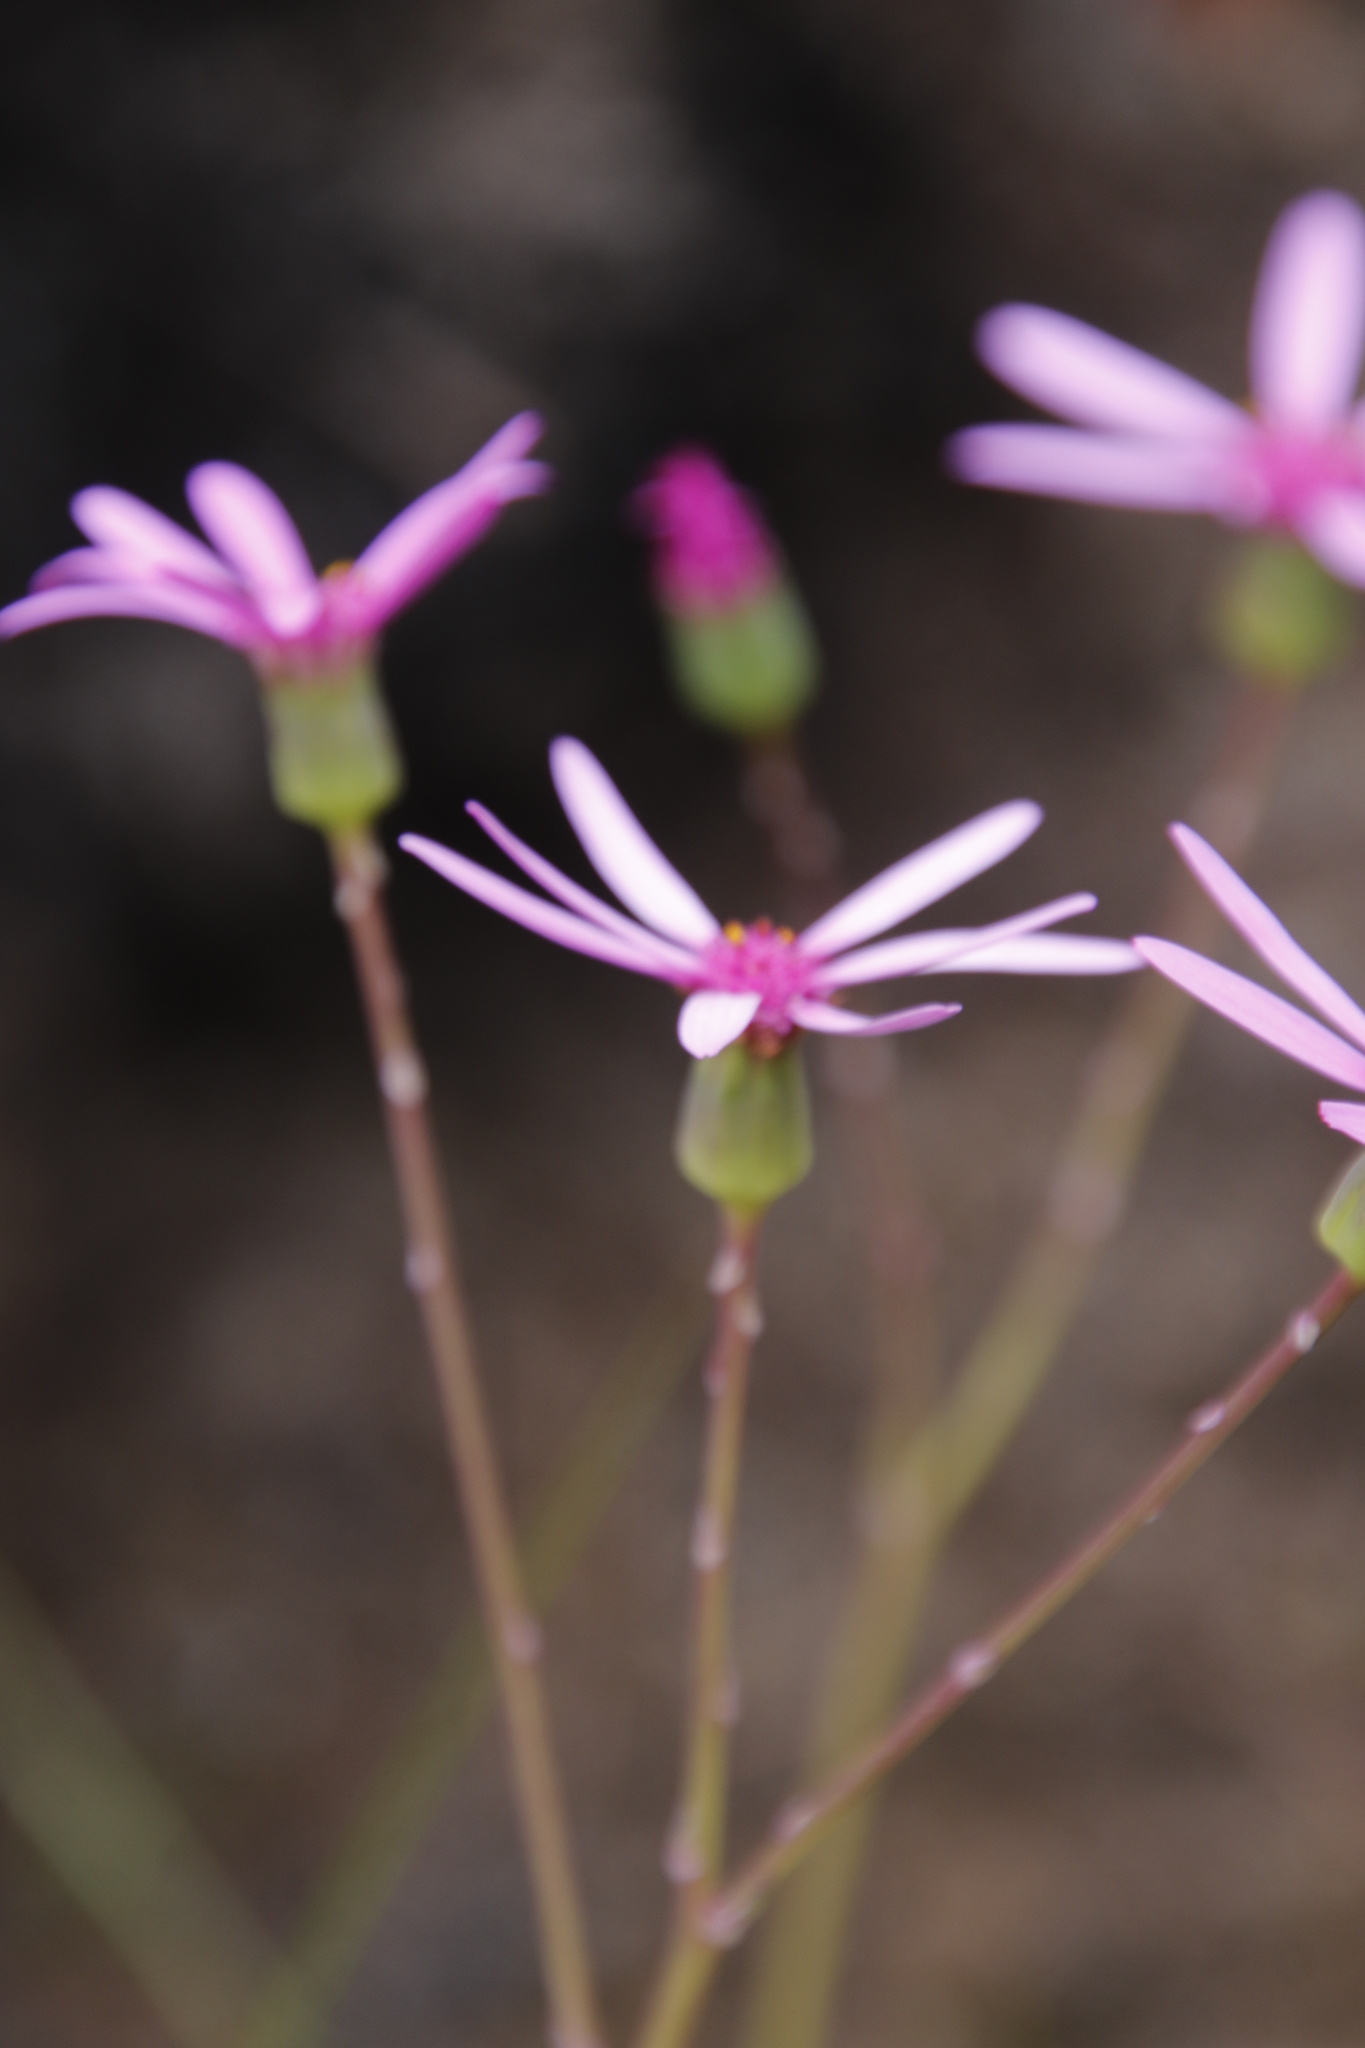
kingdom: Plantae
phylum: Tracheophyta
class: Magnoliopsida
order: Asterales
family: Asteraceae
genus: Senecio
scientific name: Senecio cymbalariifolius
